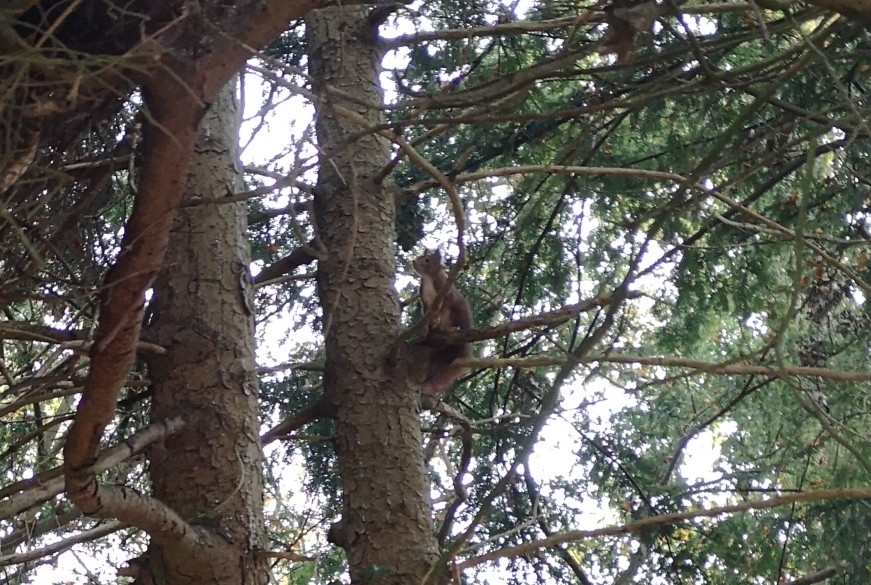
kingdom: Animalia
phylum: Chordata
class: Mammalia
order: Rodentia
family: Sciuridae
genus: Sciurus
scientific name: Sciurus vulgaris
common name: Eurasian red squirrel
